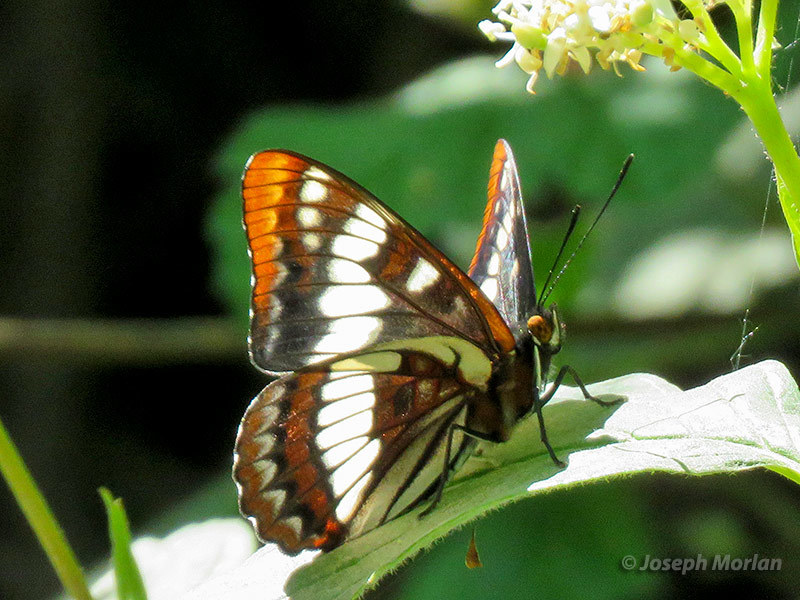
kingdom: Animalia
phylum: Arthropoda
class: Insecta
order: Lepidoptera
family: Nymphalidae
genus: Limenitis
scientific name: Limenitis lorquini
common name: Lorquin's admiral
